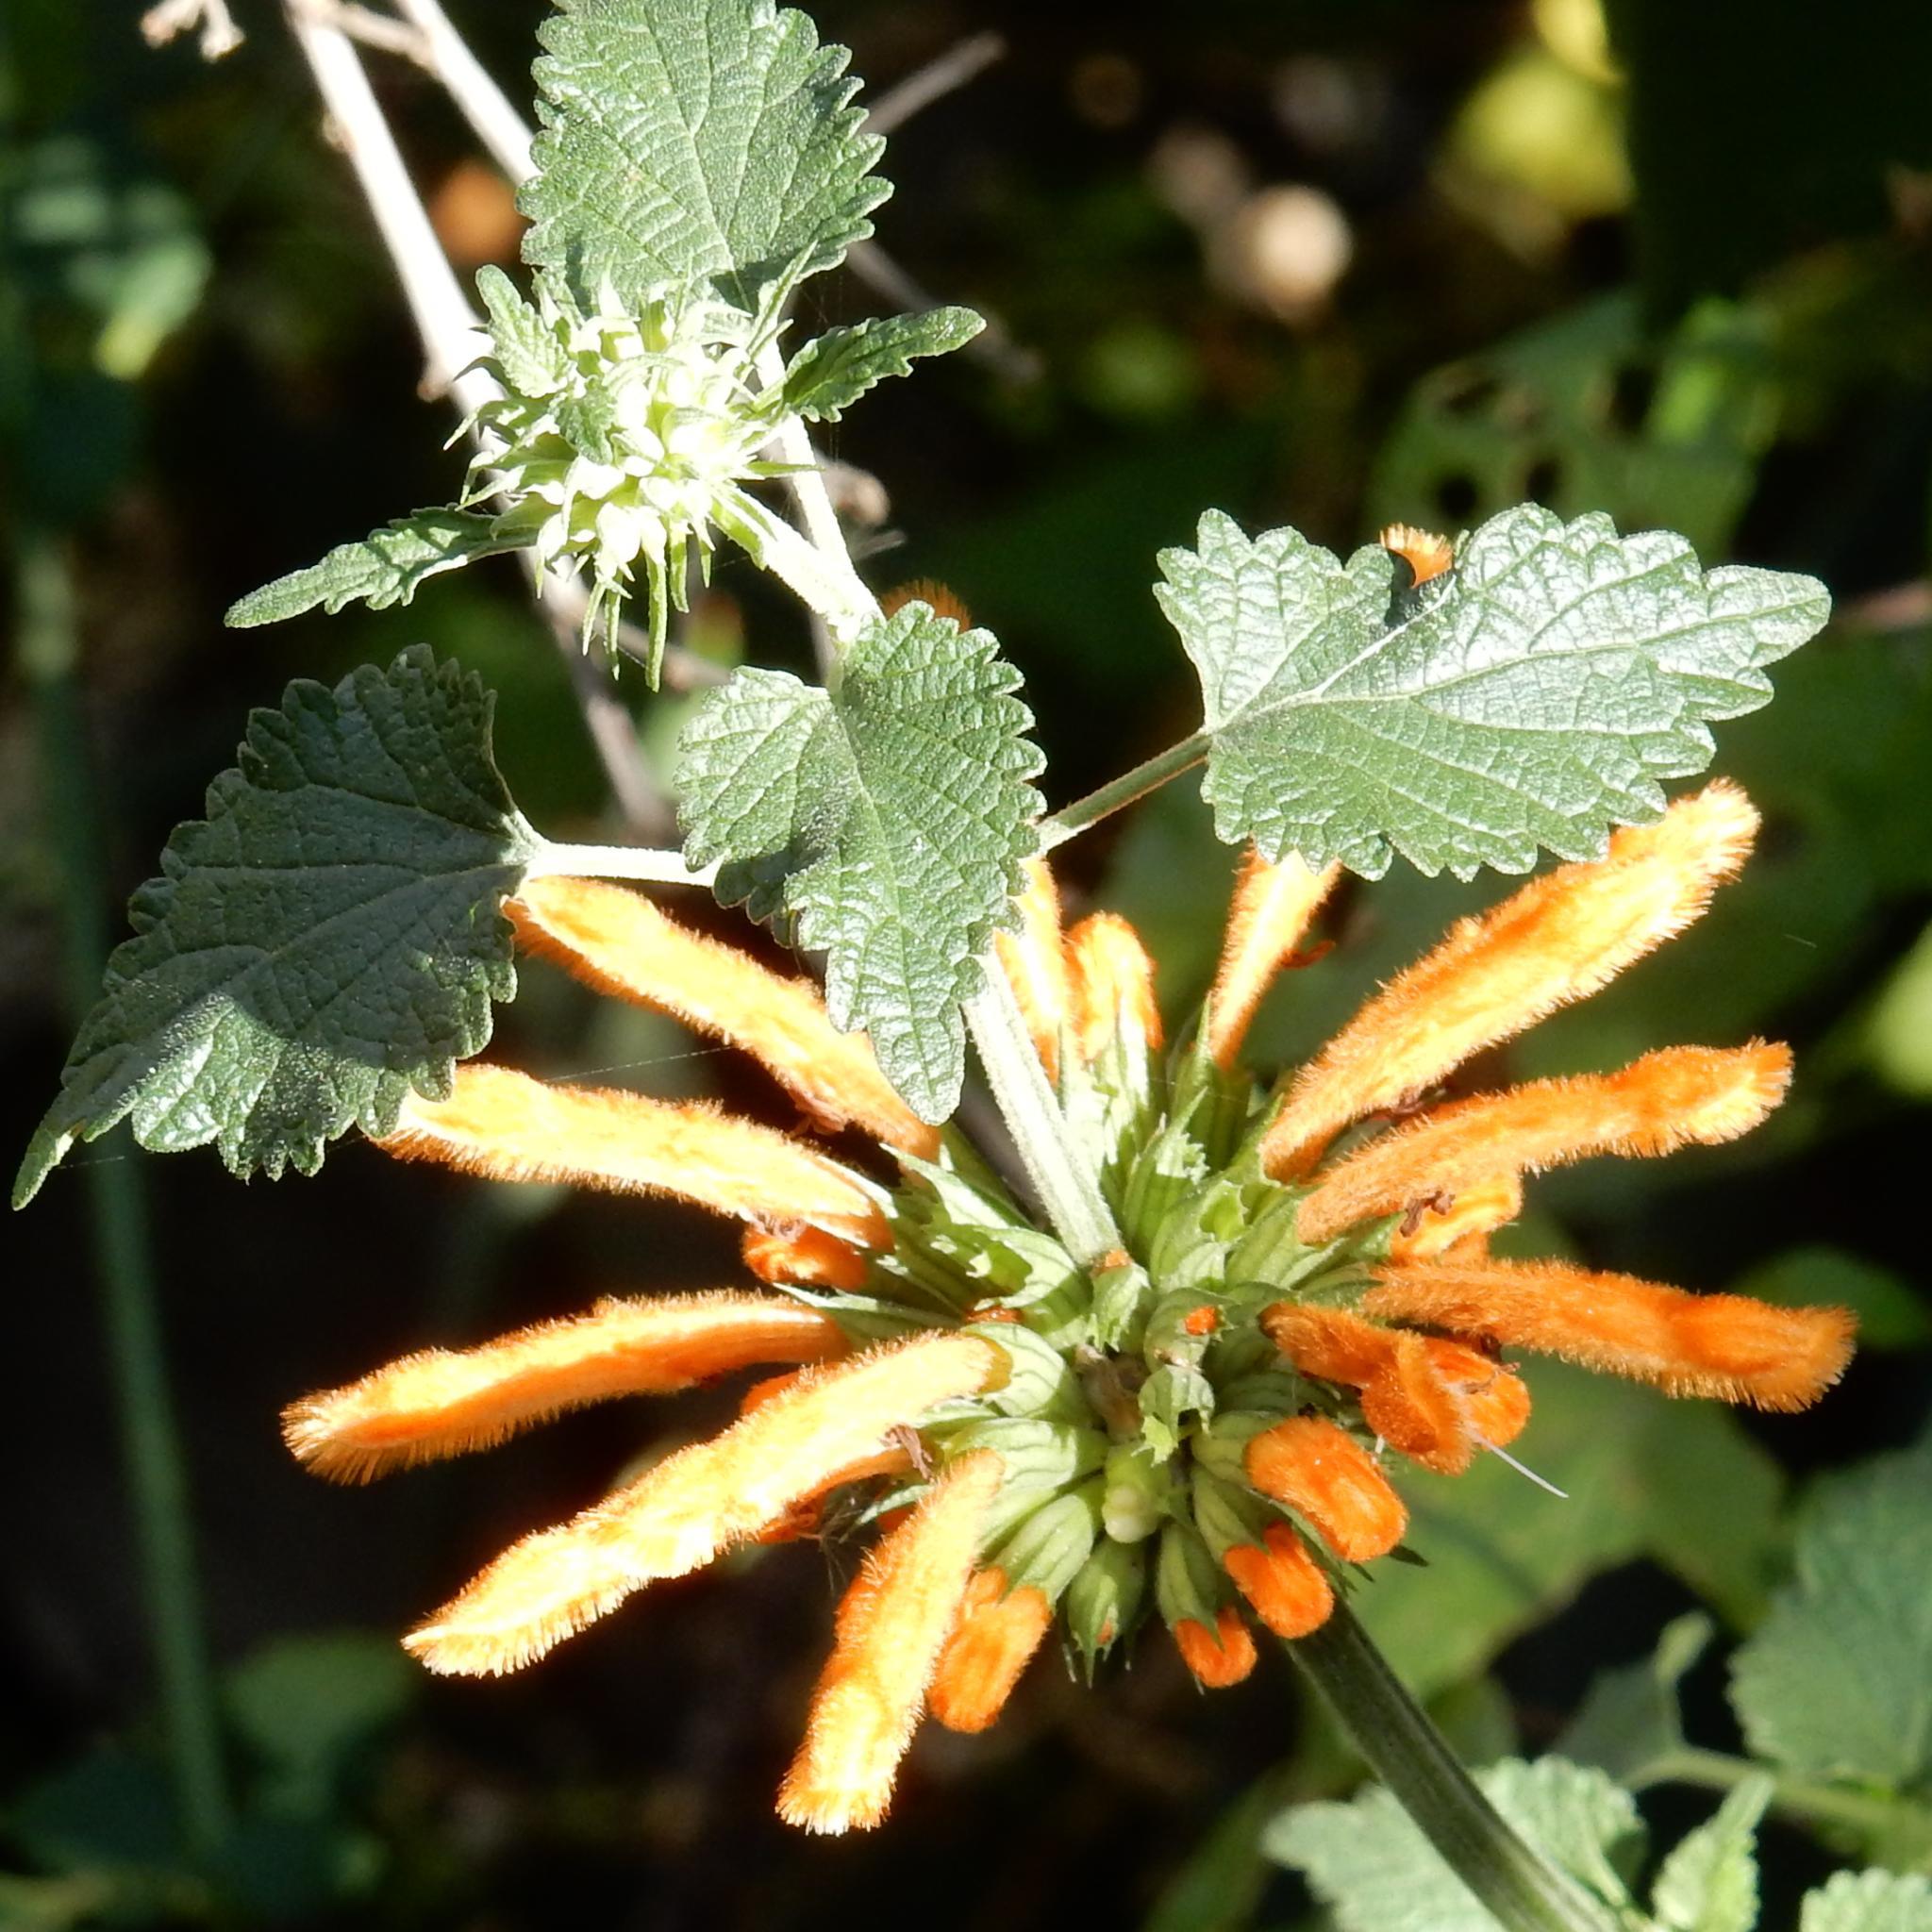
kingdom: Plantae
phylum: Tracheophyta
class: Magnoliopsida
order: Lamiales
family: Lamiaceae
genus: Leonotis
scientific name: Leonotis ocymifolia
